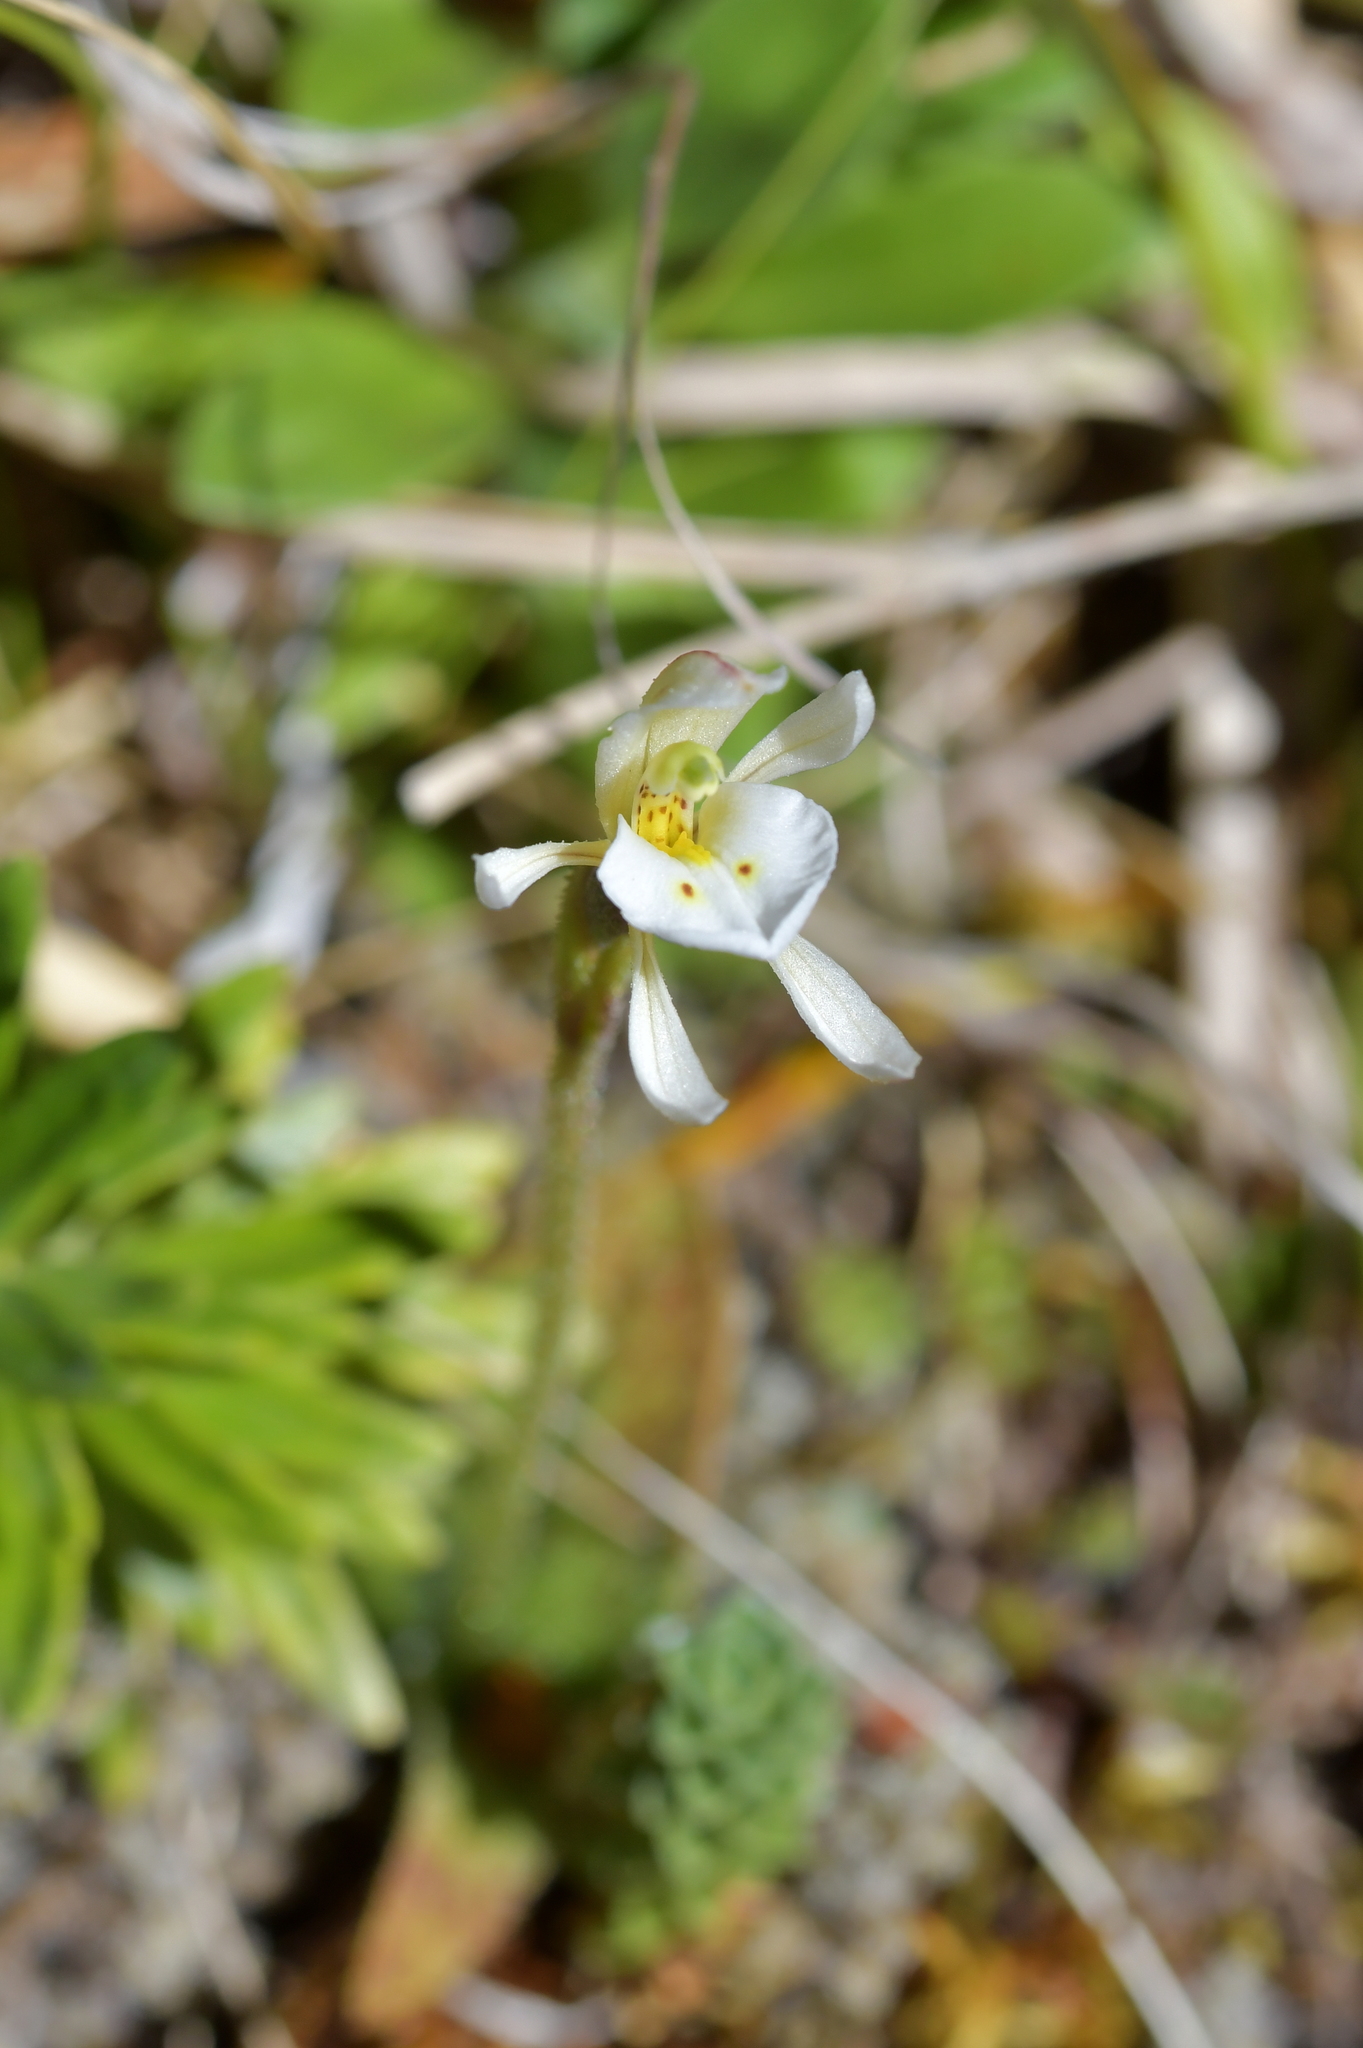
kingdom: Plantae
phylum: Tracheophyta
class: Liliopsida
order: Asparagales
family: Orchidaceae
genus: Aporostylis
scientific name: Aporostylis bifolia
